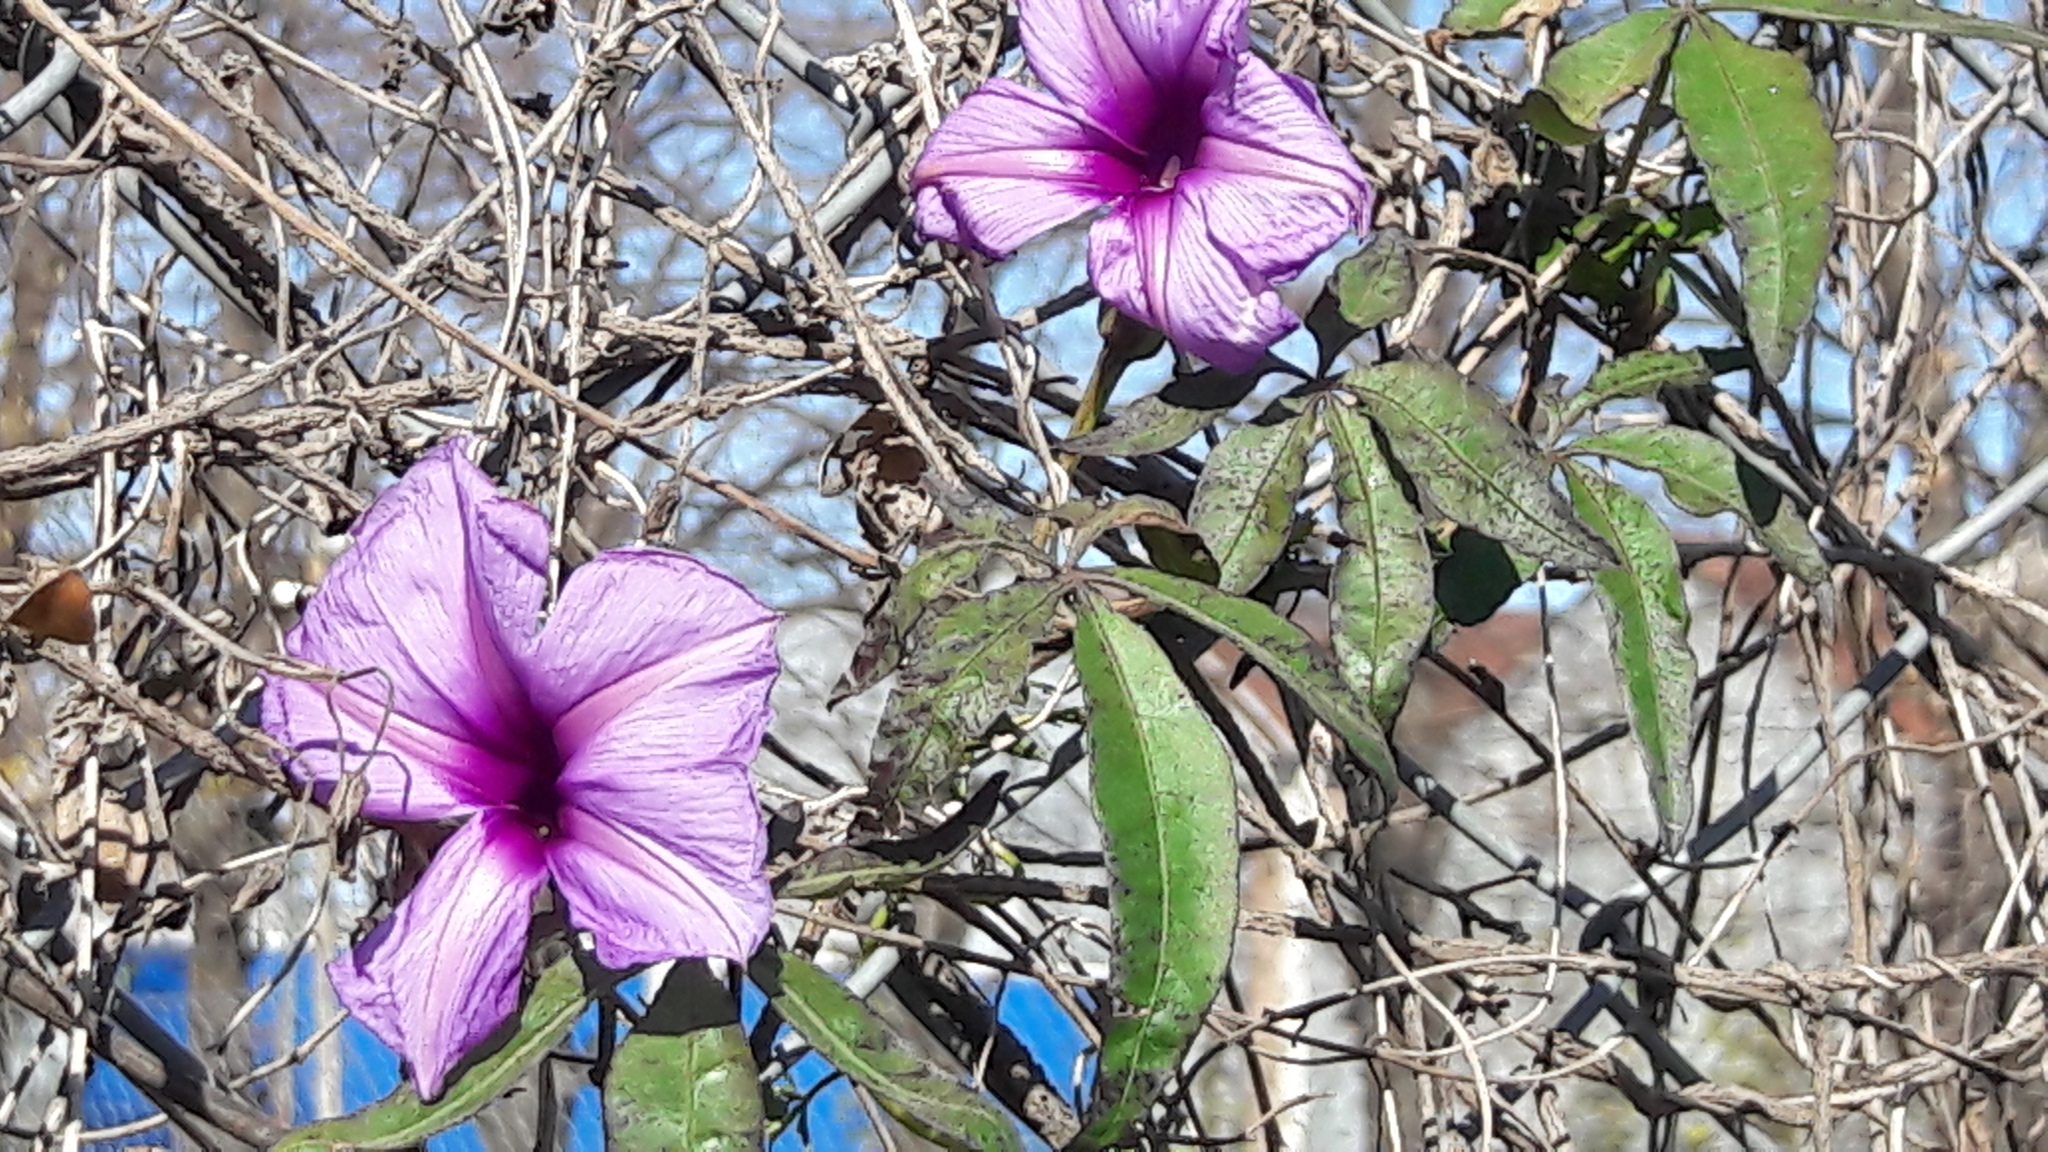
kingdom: Plantae
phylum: Tracheophyta
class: Magnoliopsida
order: Solanales
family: Convolvulaceae
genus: Ipomoea
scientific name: Ipomoea cairica
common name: Mile a minute vine
